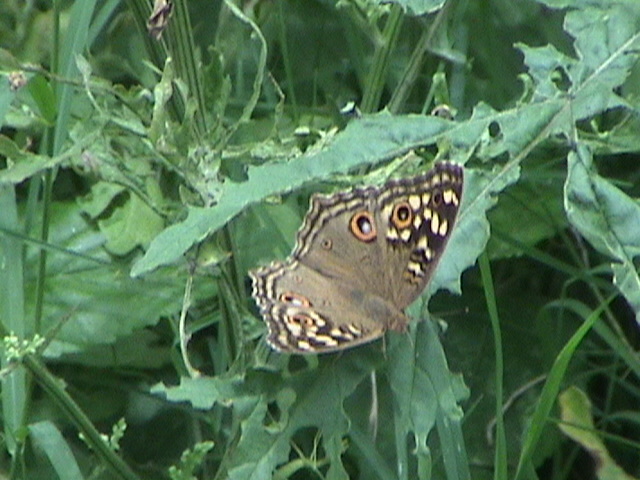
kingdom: Animalia
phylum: Arthropoda
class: Insecta
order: Lepidoptera
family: Nymphalidae
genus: Junonia
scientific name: Junonia lemonias
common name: Lemon pansy
